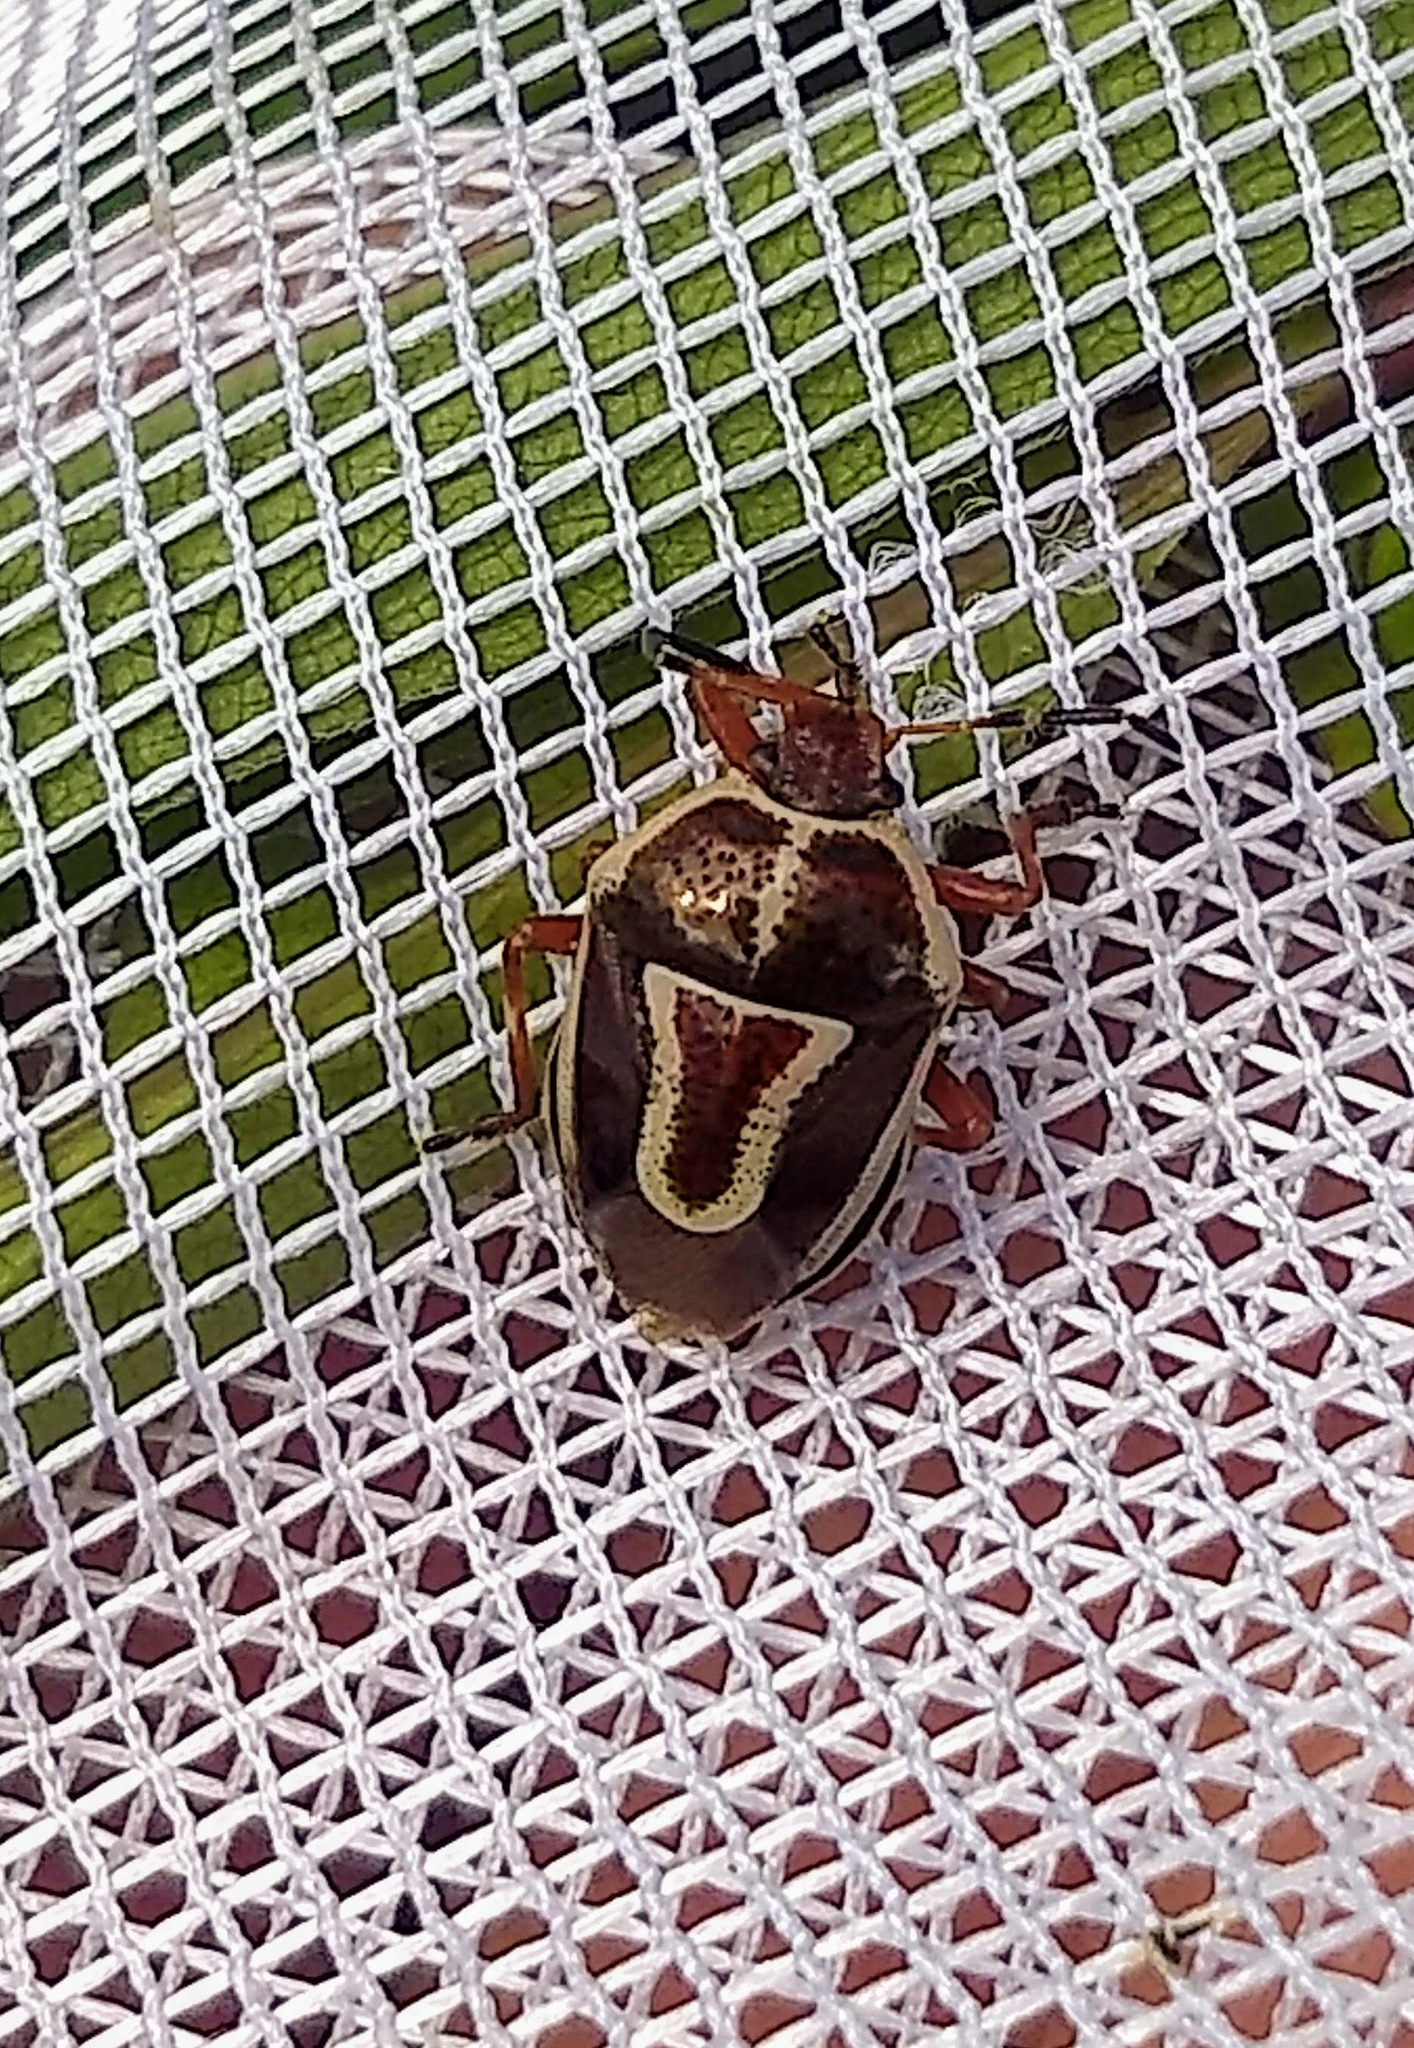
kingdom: Animalia
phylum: Arthropoda
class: Insecta
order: Hemiptera
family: Pentatomidae
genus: Perillus
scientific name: Perillus circumcinctus
